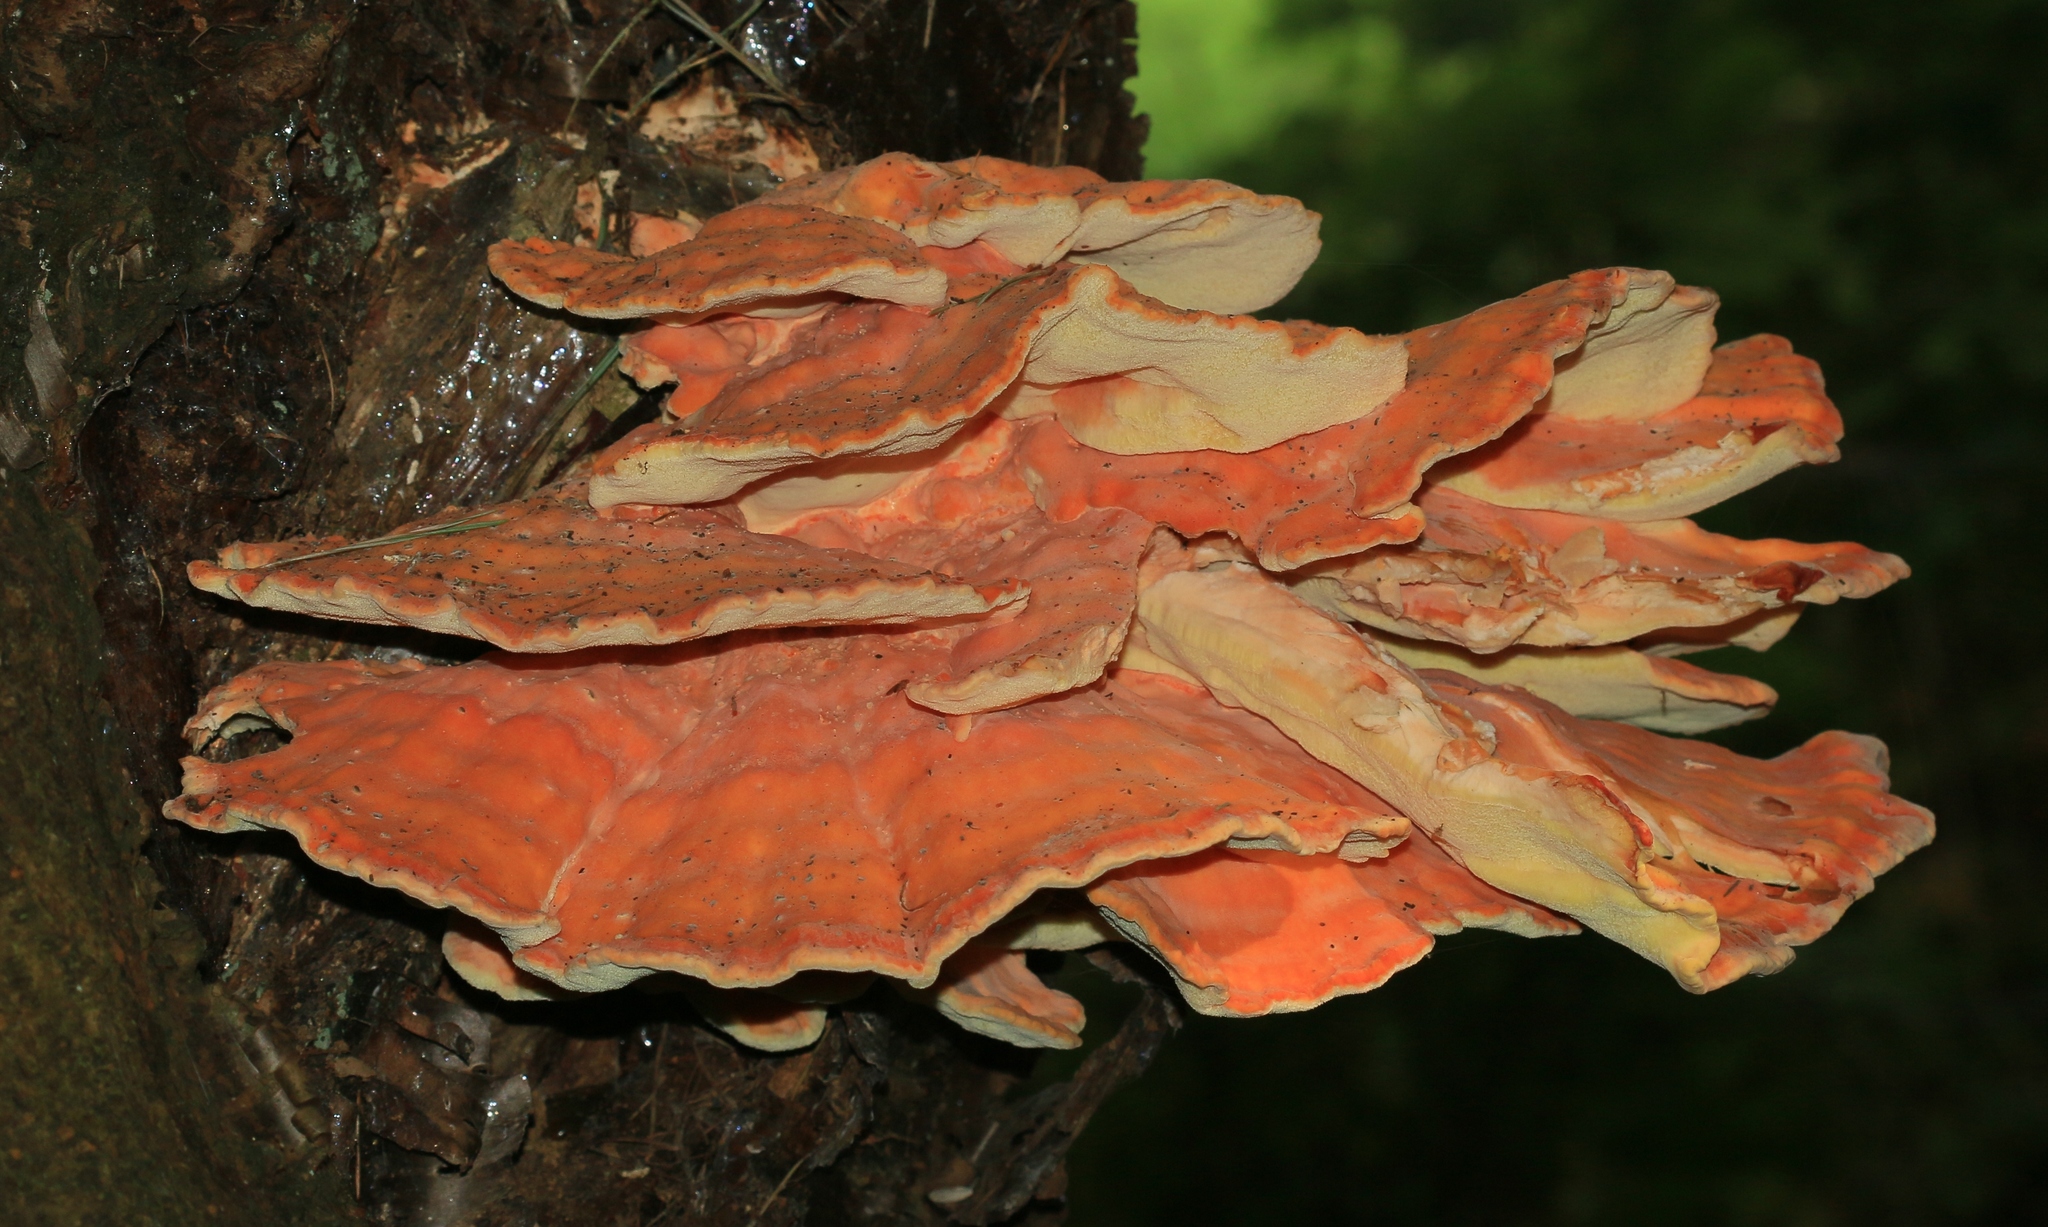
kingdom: Fungi
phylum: Basidiomycota
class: Agaricomycetes
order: Polyporales
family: Laetiporaceae
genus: Laetiporus
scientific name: Laetiporus sulphureus
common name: Chicken of the woods
